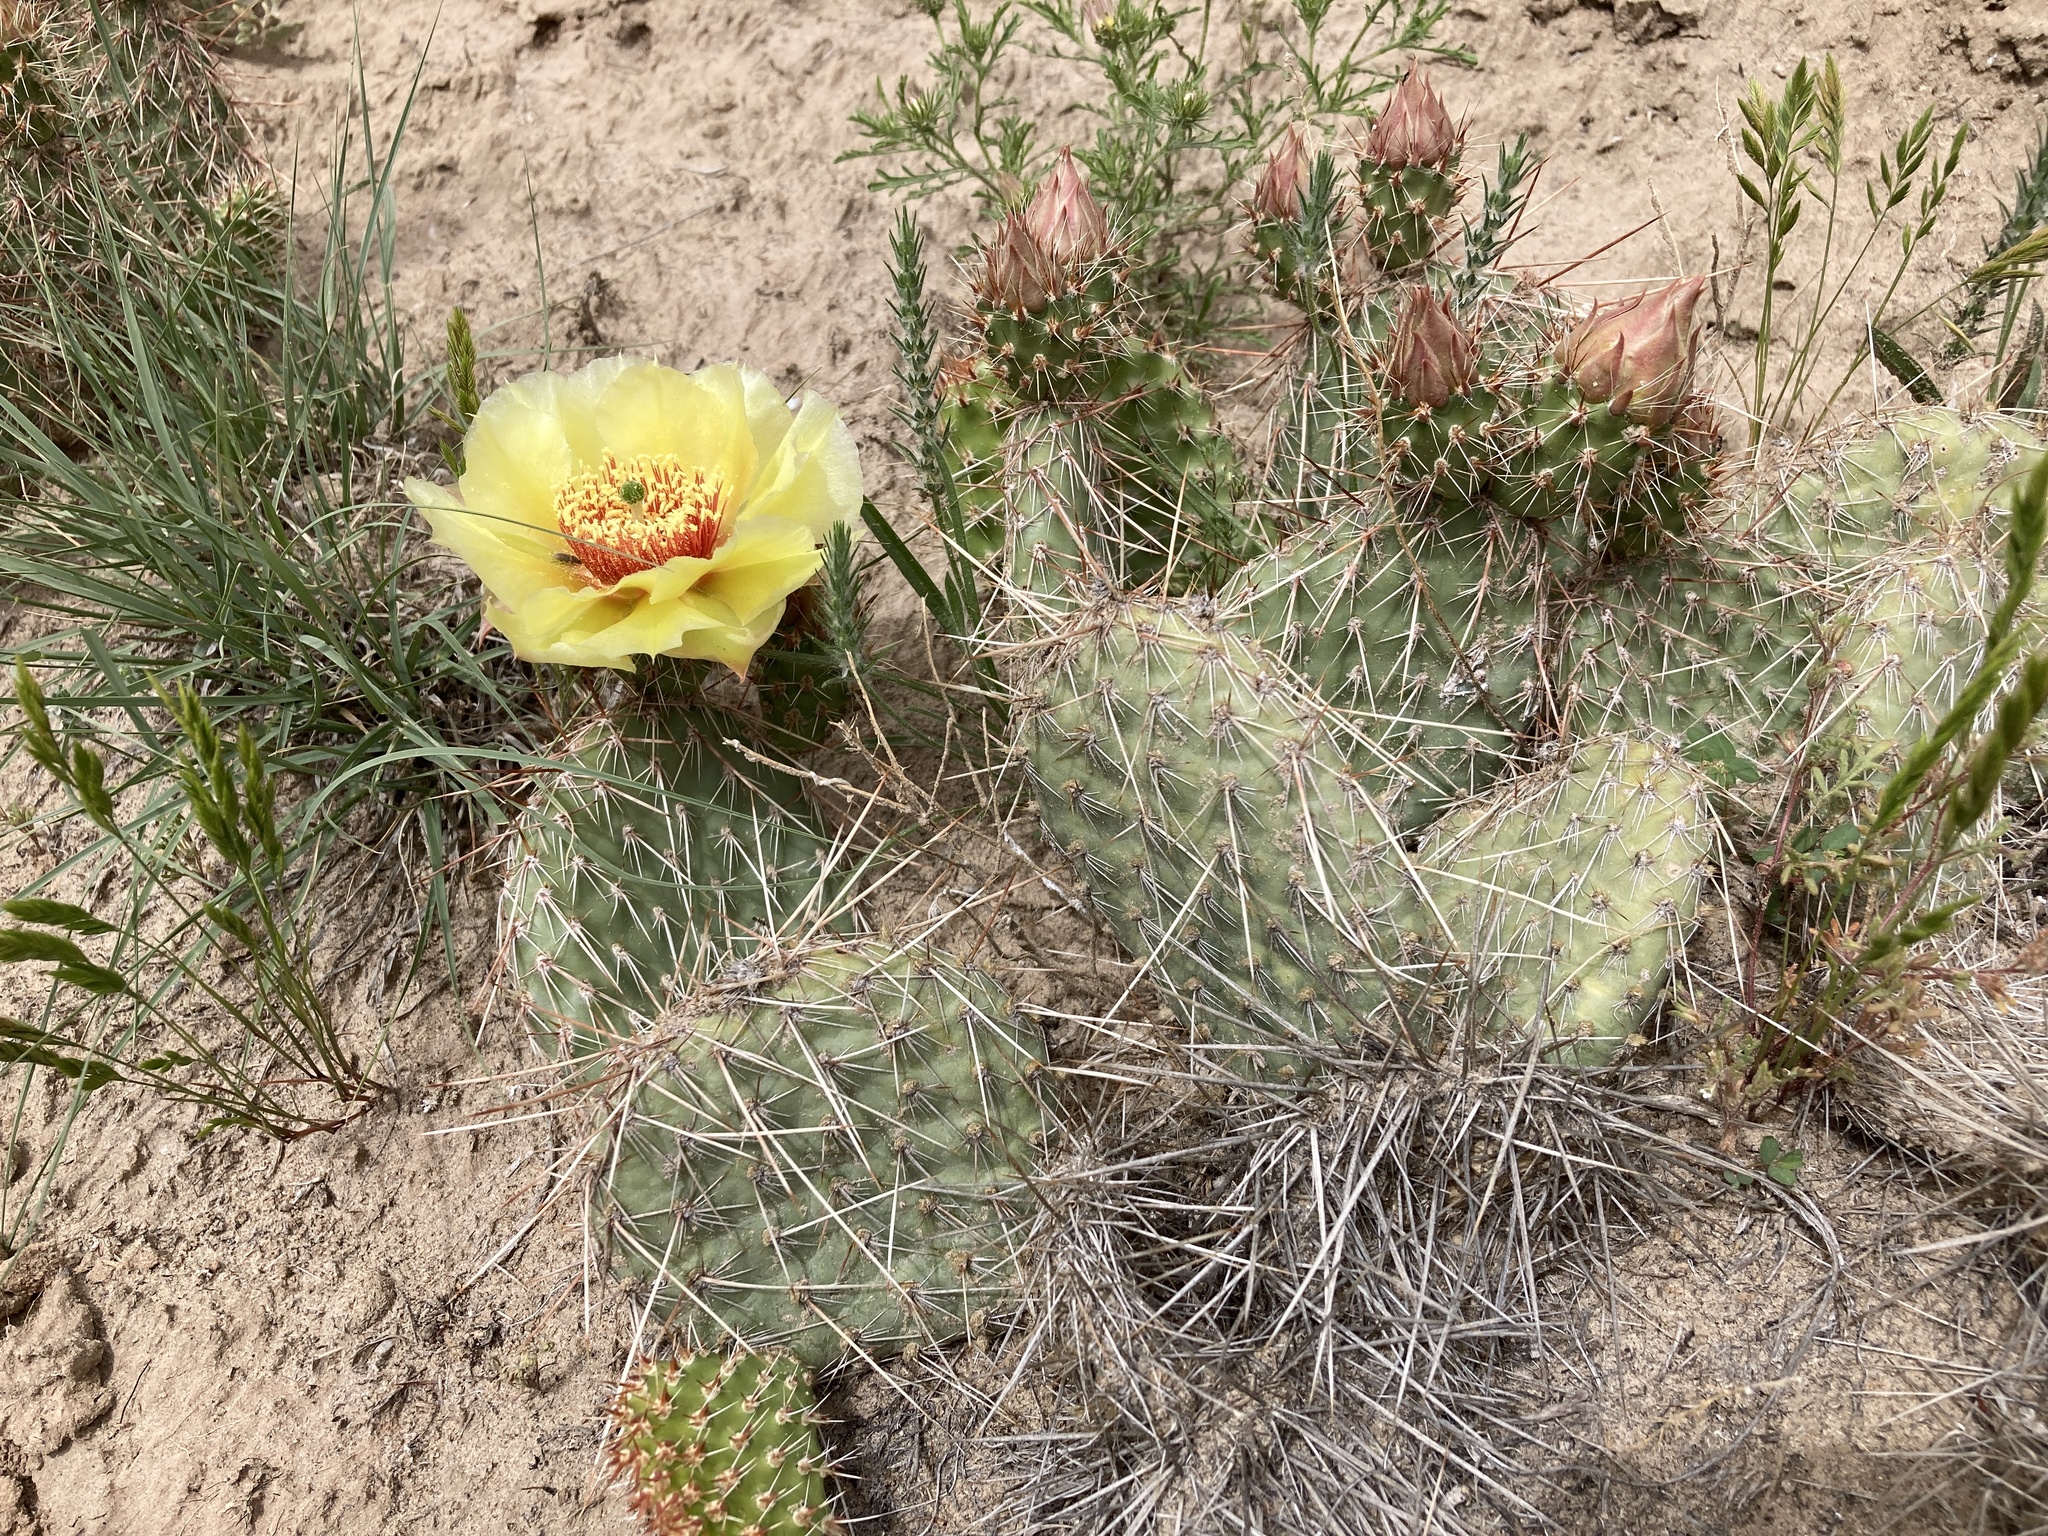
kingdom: Plantae
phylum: Tracheophyta
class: Magnoliopsida
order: Caryophyllales
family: Cactaceae
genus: Opuntia
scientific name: Opuntia polyacantha
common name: Plains prickly-pear
